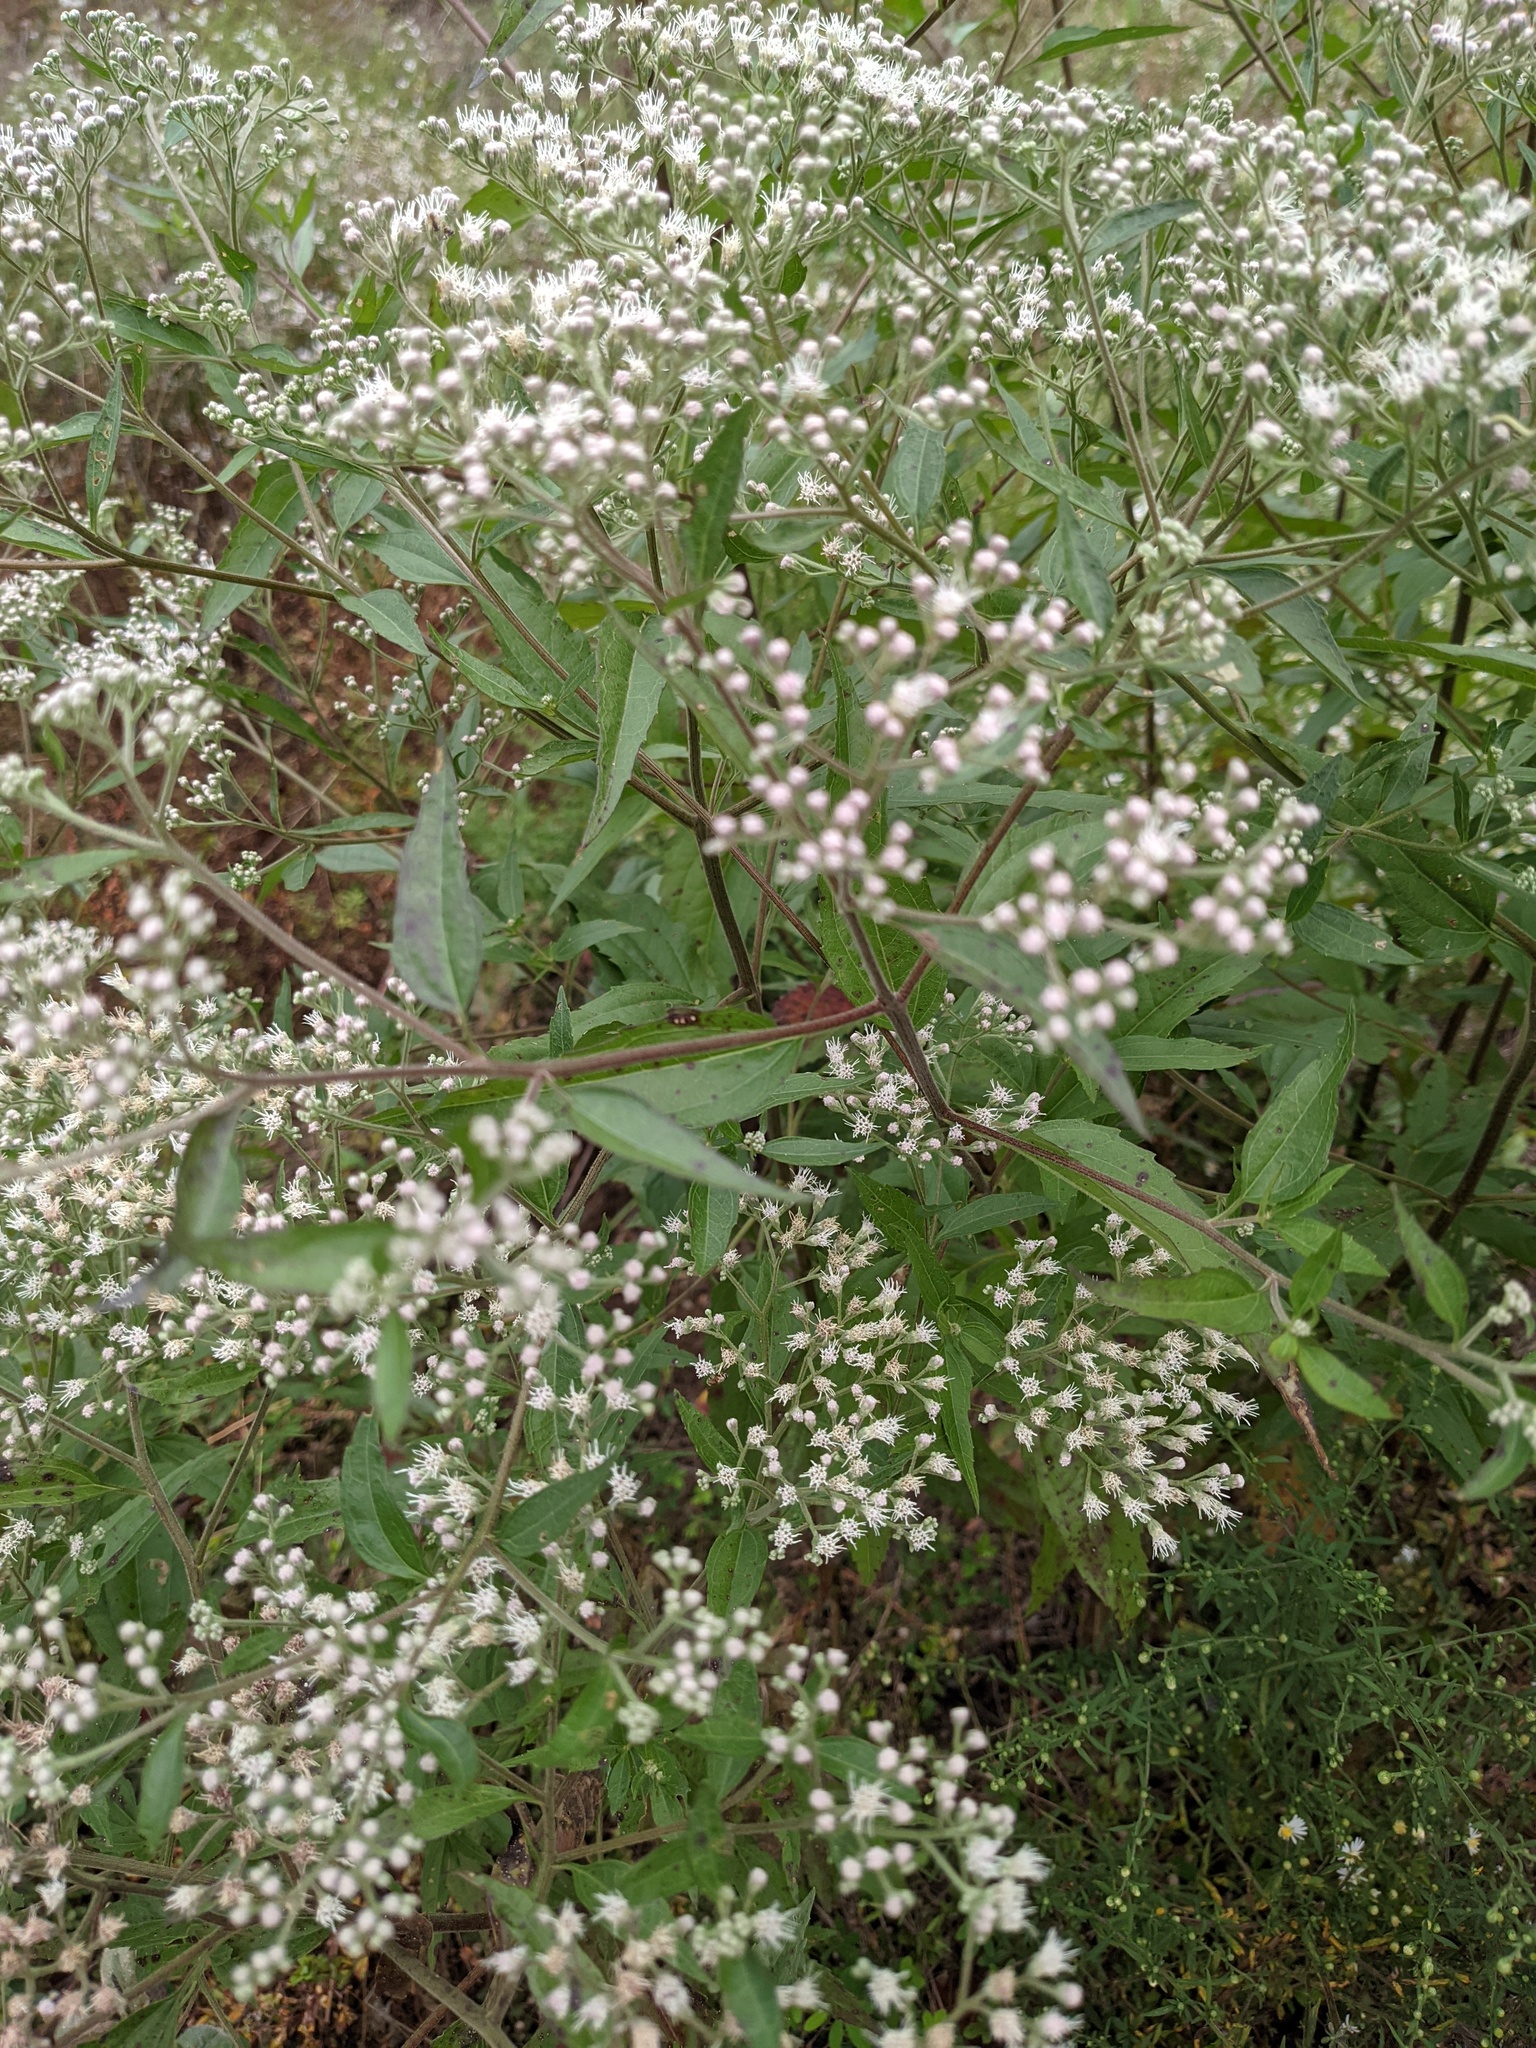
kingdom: Plantae
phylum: Tracheophyta
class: Magnoliopsida
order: Asterales
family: Asteraceae
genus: Eupatorium
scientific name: Eupatorium serotinum
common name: Late boneset
